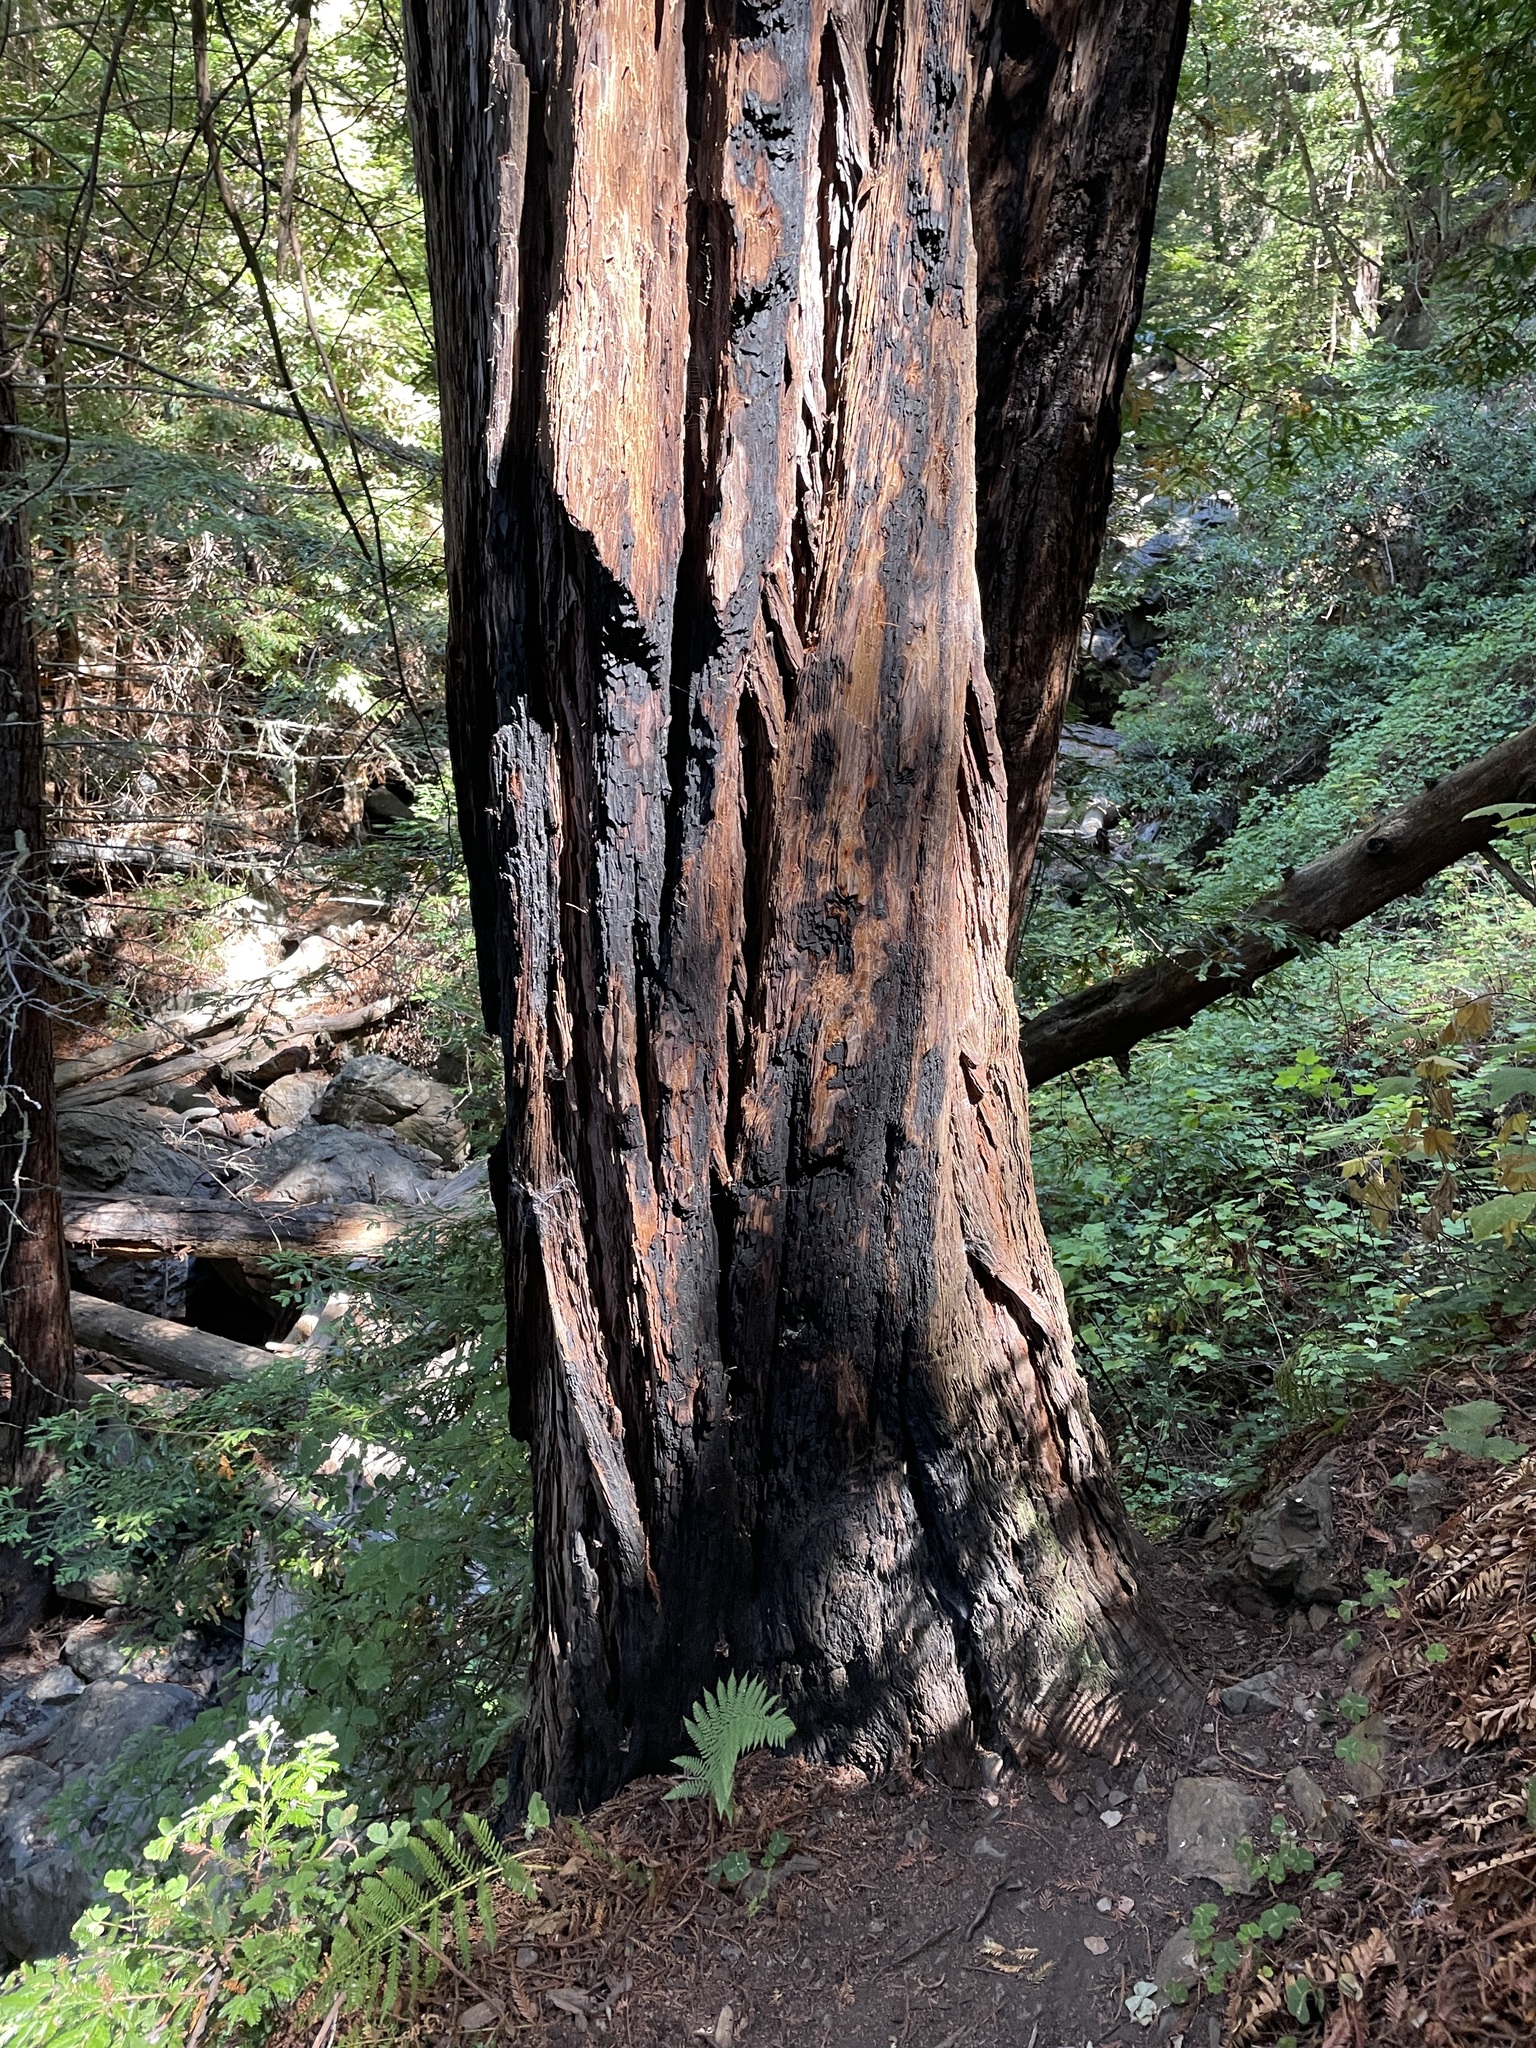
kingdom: Plantae
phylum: Tracheophyta
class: Pinopsida
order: Pinales
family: Cupressaceae
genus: Sequoia
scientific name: Sequoia sempervirens
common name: Coast redwood
